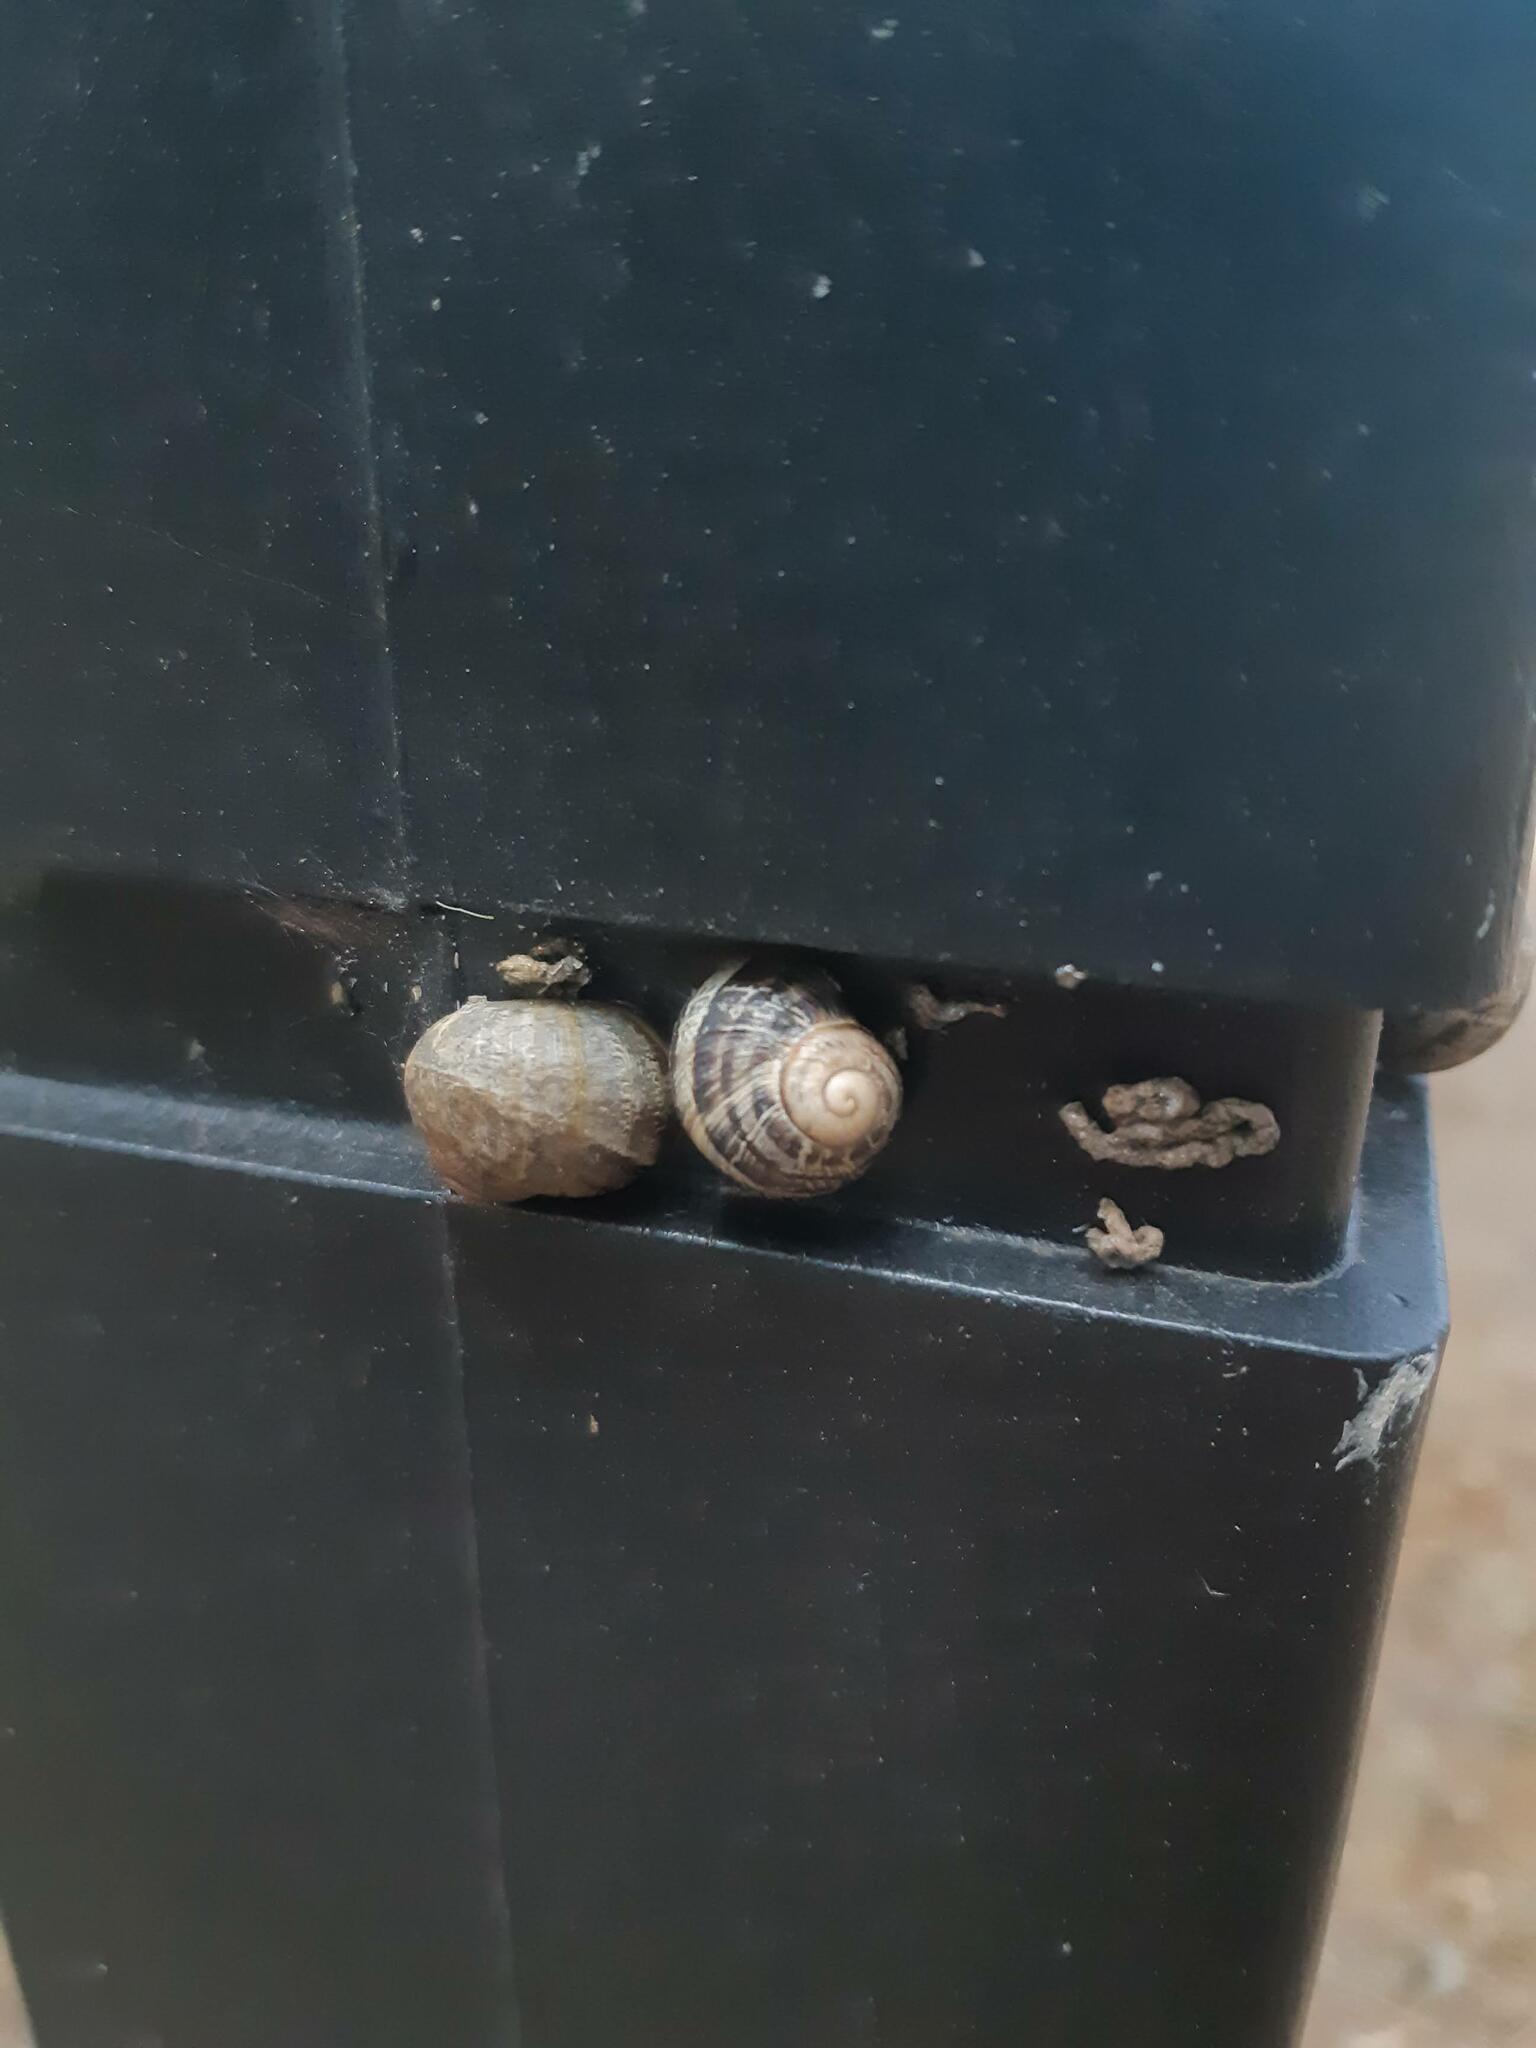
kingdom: Animalia
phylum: Mollusca
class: Gastropoda
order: Stylommatophora
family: Helicidae
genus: Cornu
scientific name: Cornu aspersum
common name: Brown garden snail
